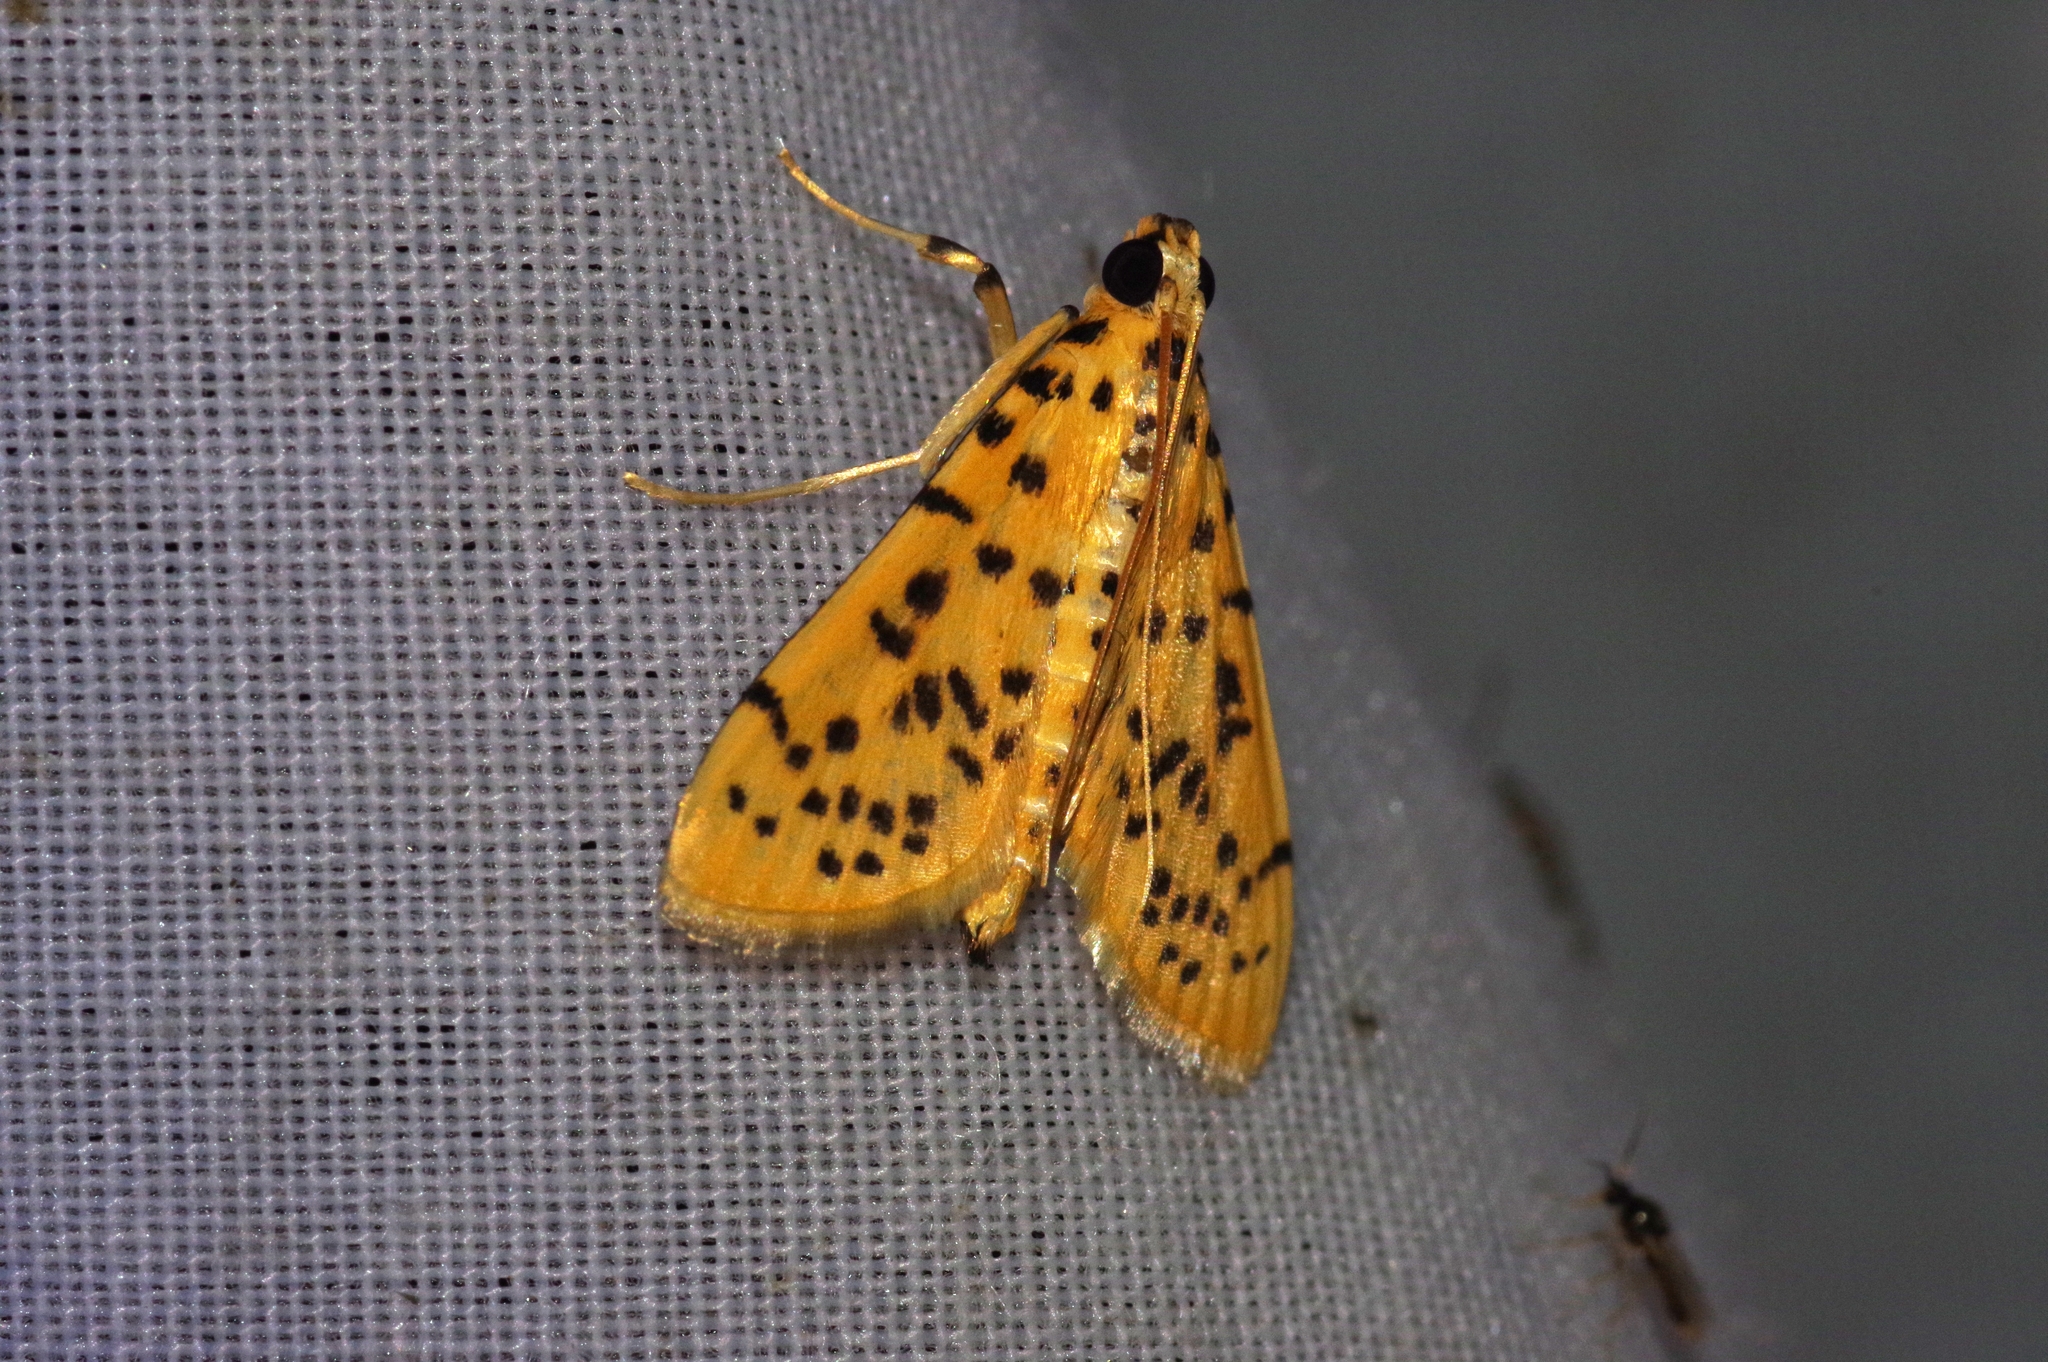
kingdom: Animalia
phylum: Arthropoda
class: Insecta
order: Lepidoptera
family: Crambidae
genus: Conogethes
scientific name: Conogethes punctiferalis
